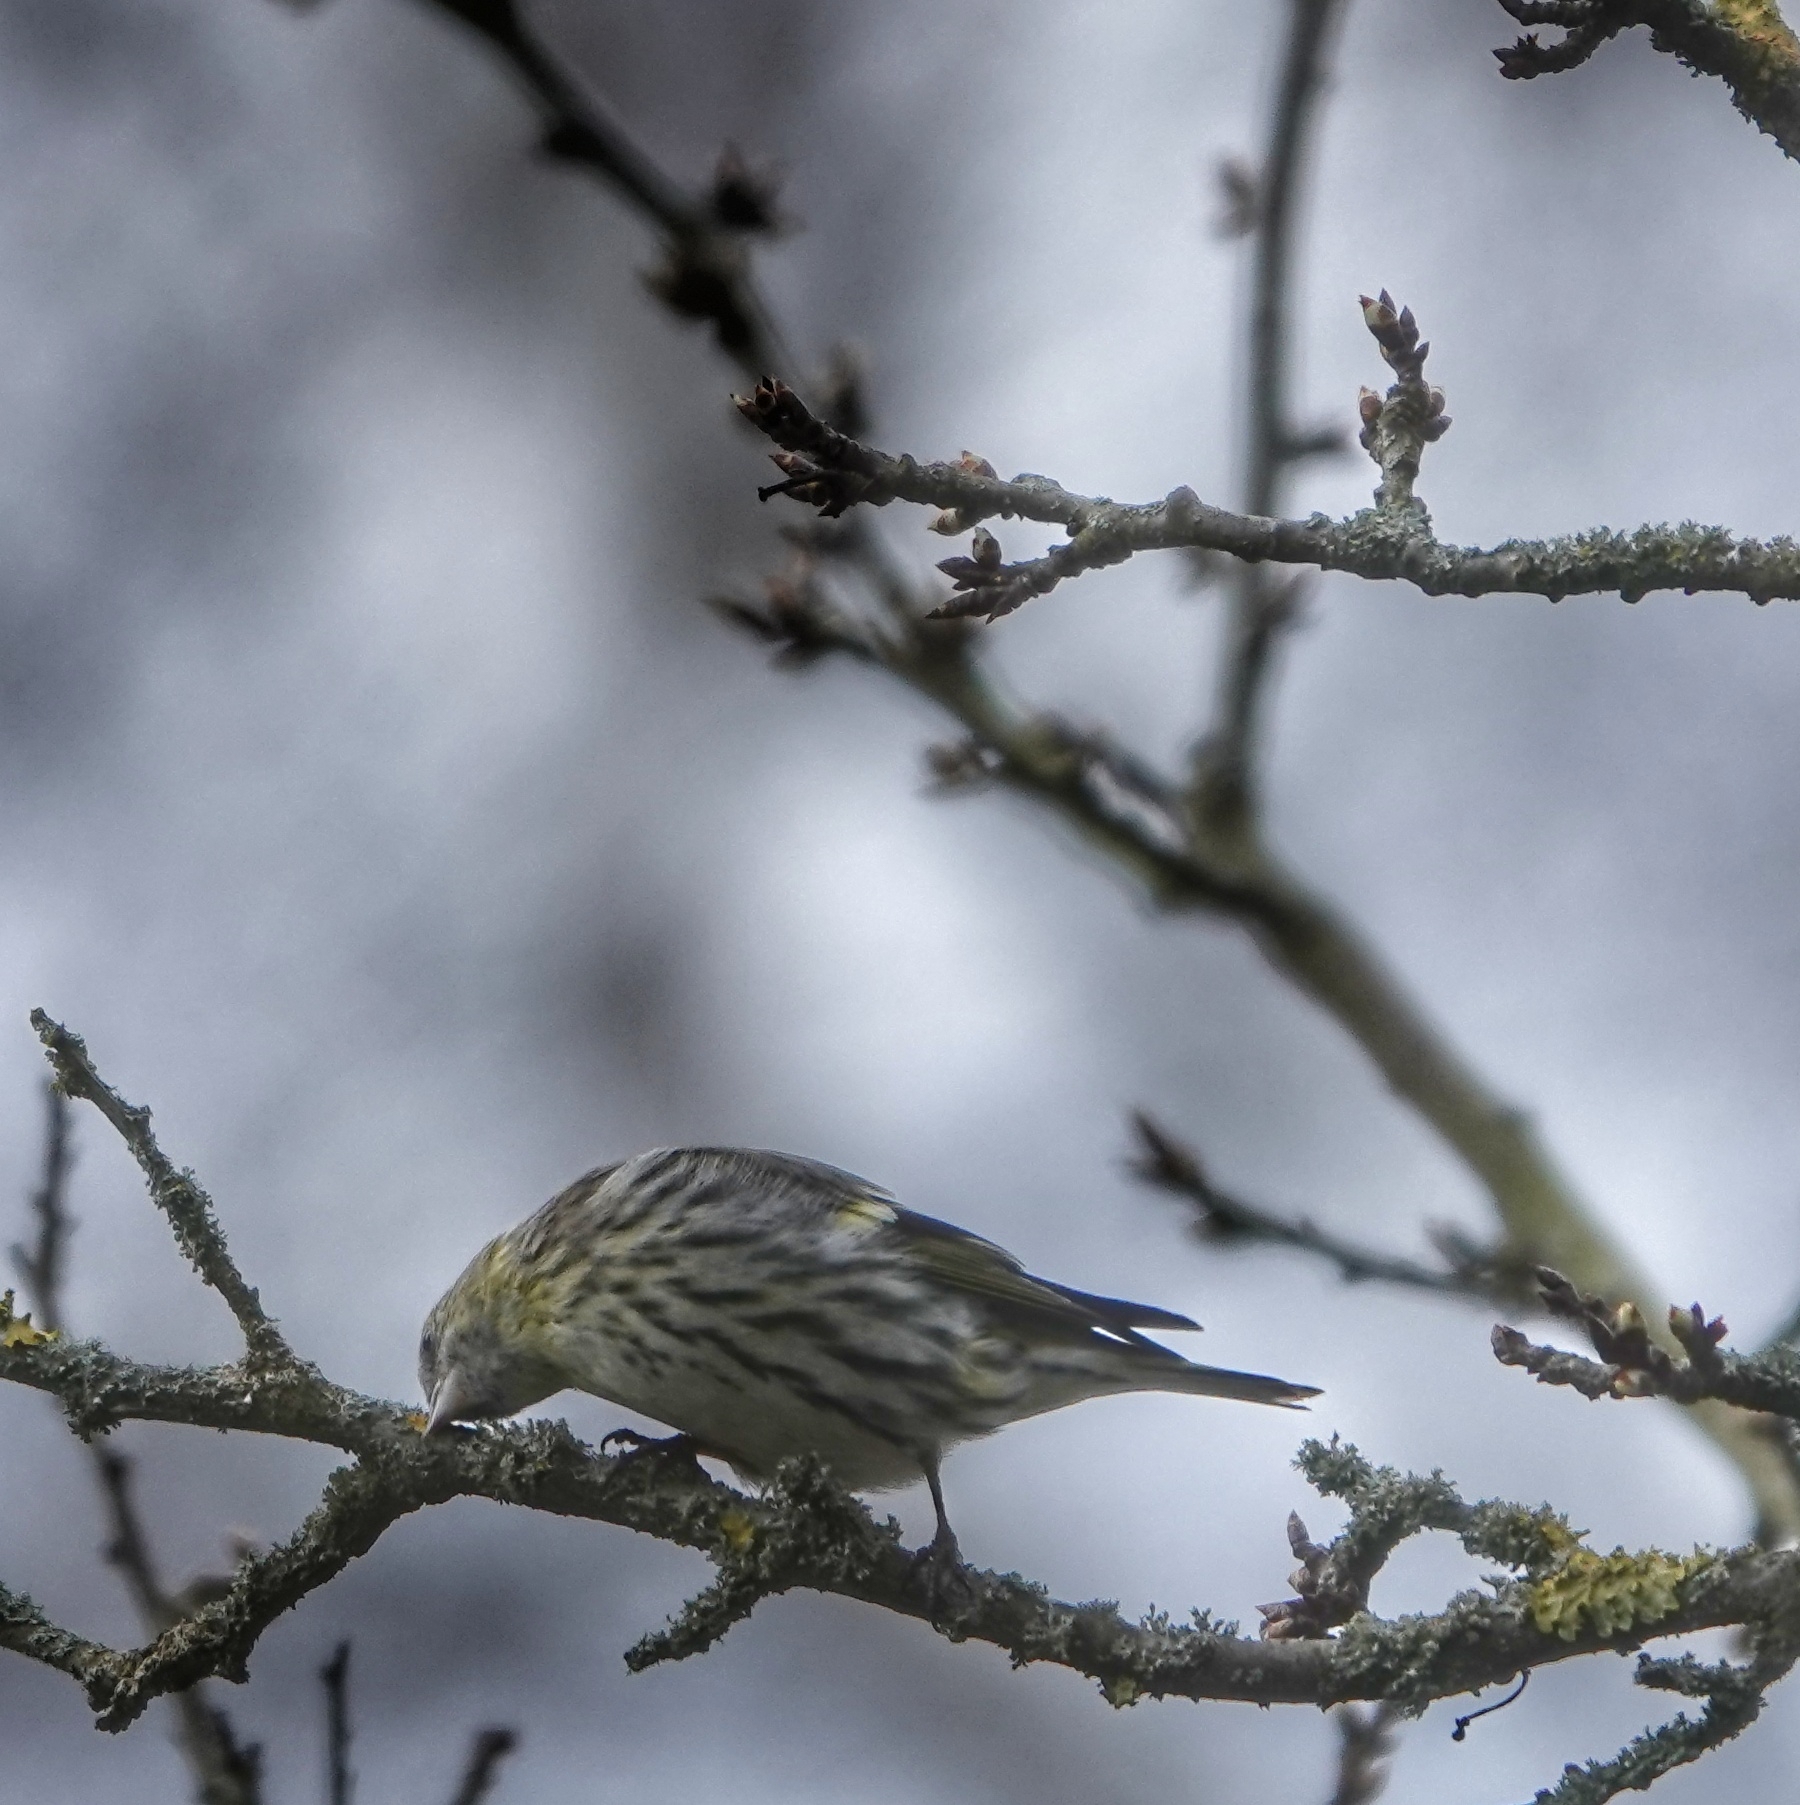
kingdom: Animalia
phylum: Chordata
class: Aves
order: Passeriformes
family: Fringillidae
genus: Spinus
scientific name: Spinus spinus
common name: Eurasian siskin
